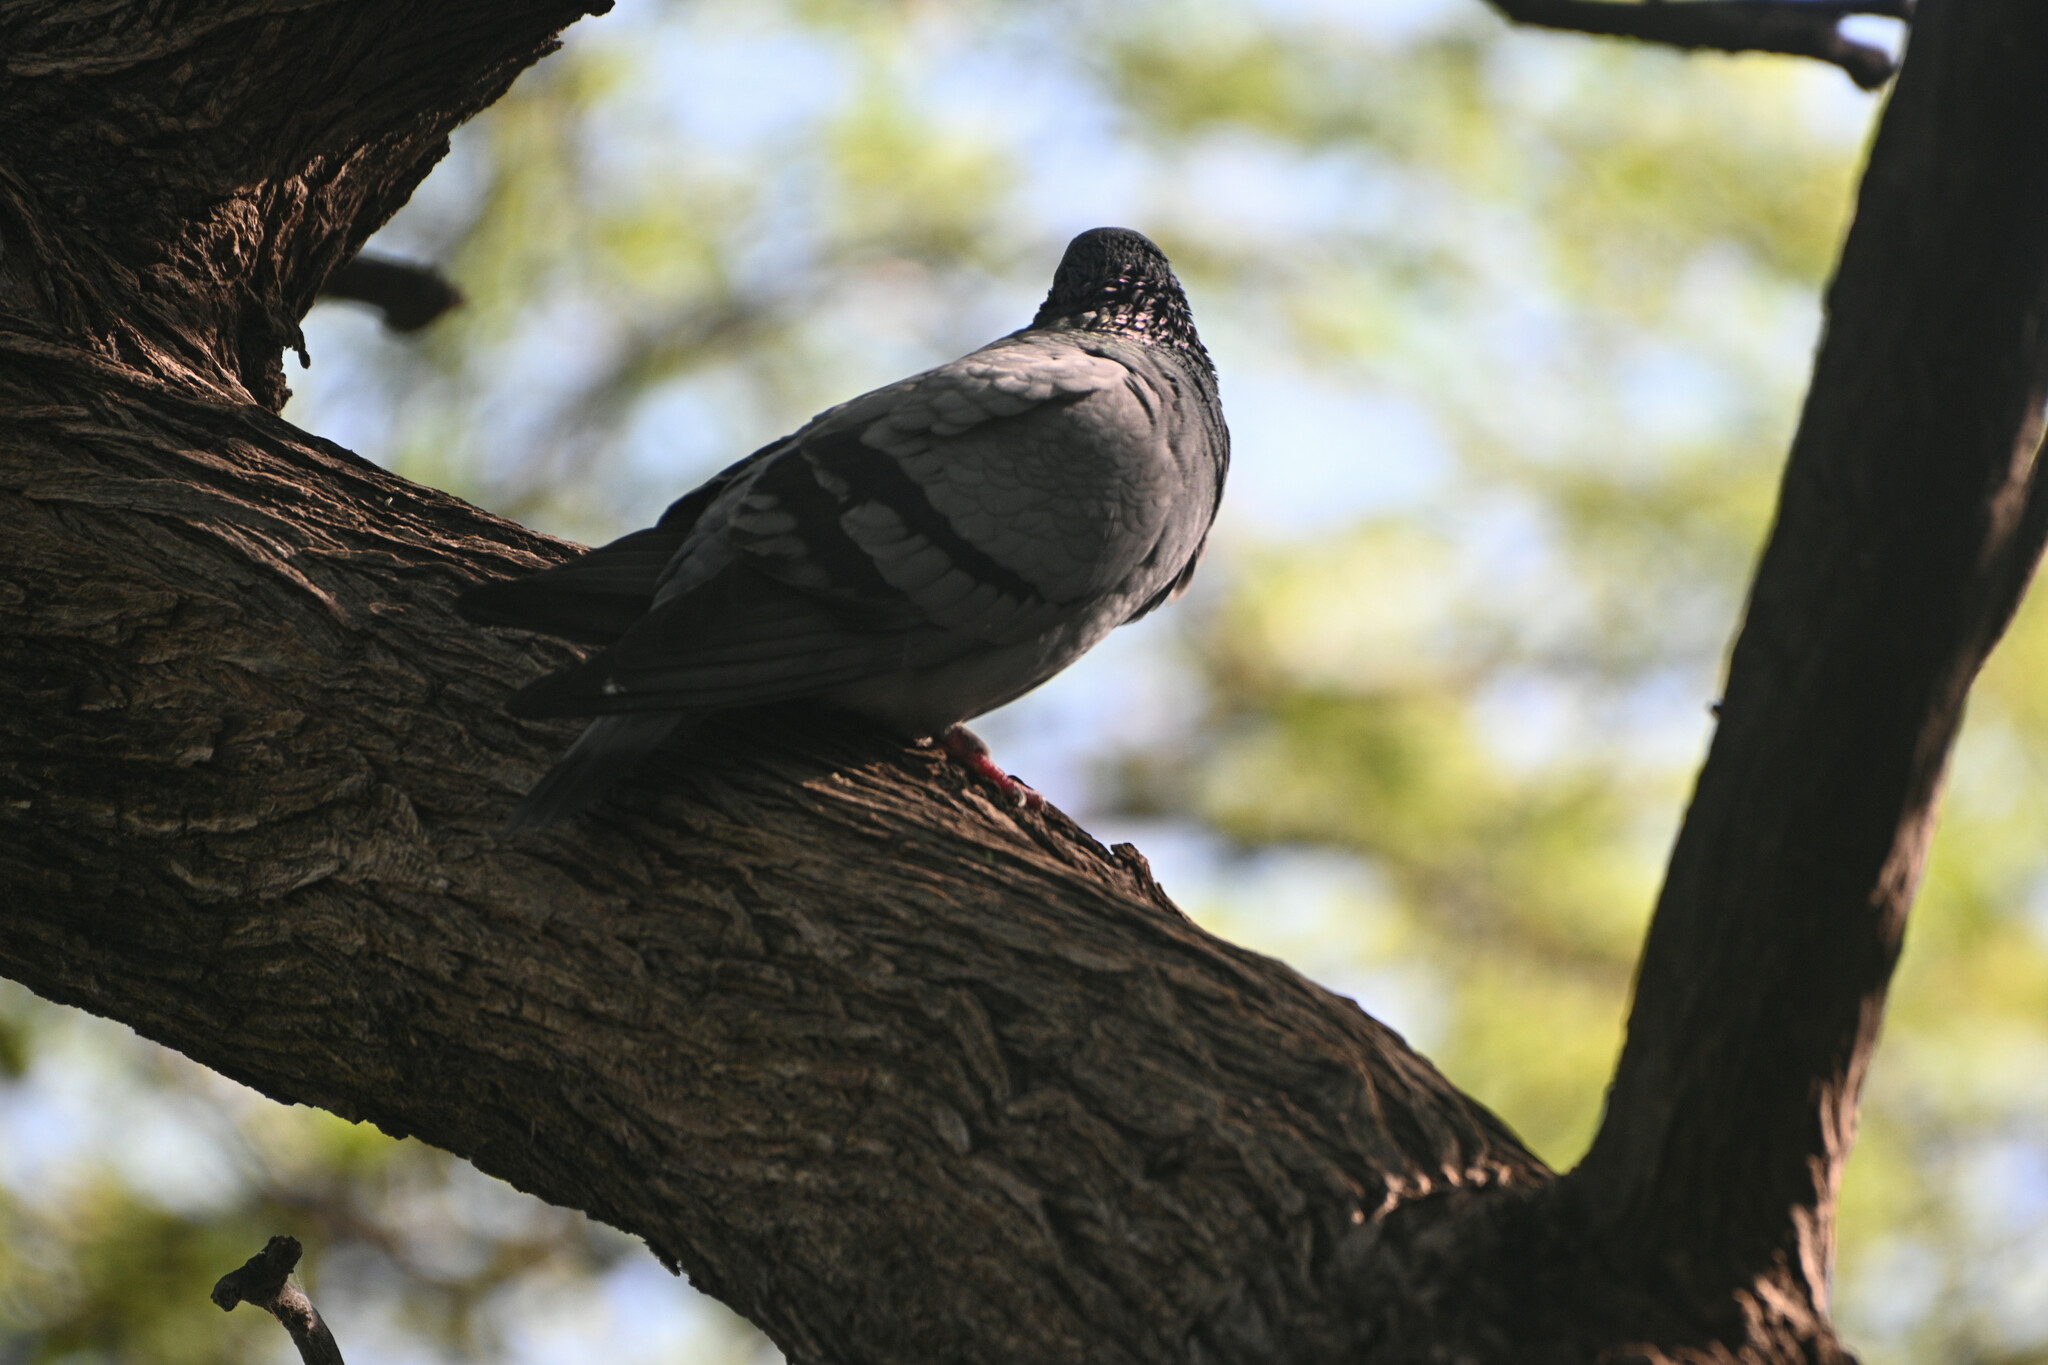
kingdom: Animalia
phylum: Chordata
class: Aves
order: Columbiformes
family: Columbidae
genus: Columba
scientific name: Columba livia
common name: Rock pigeon
